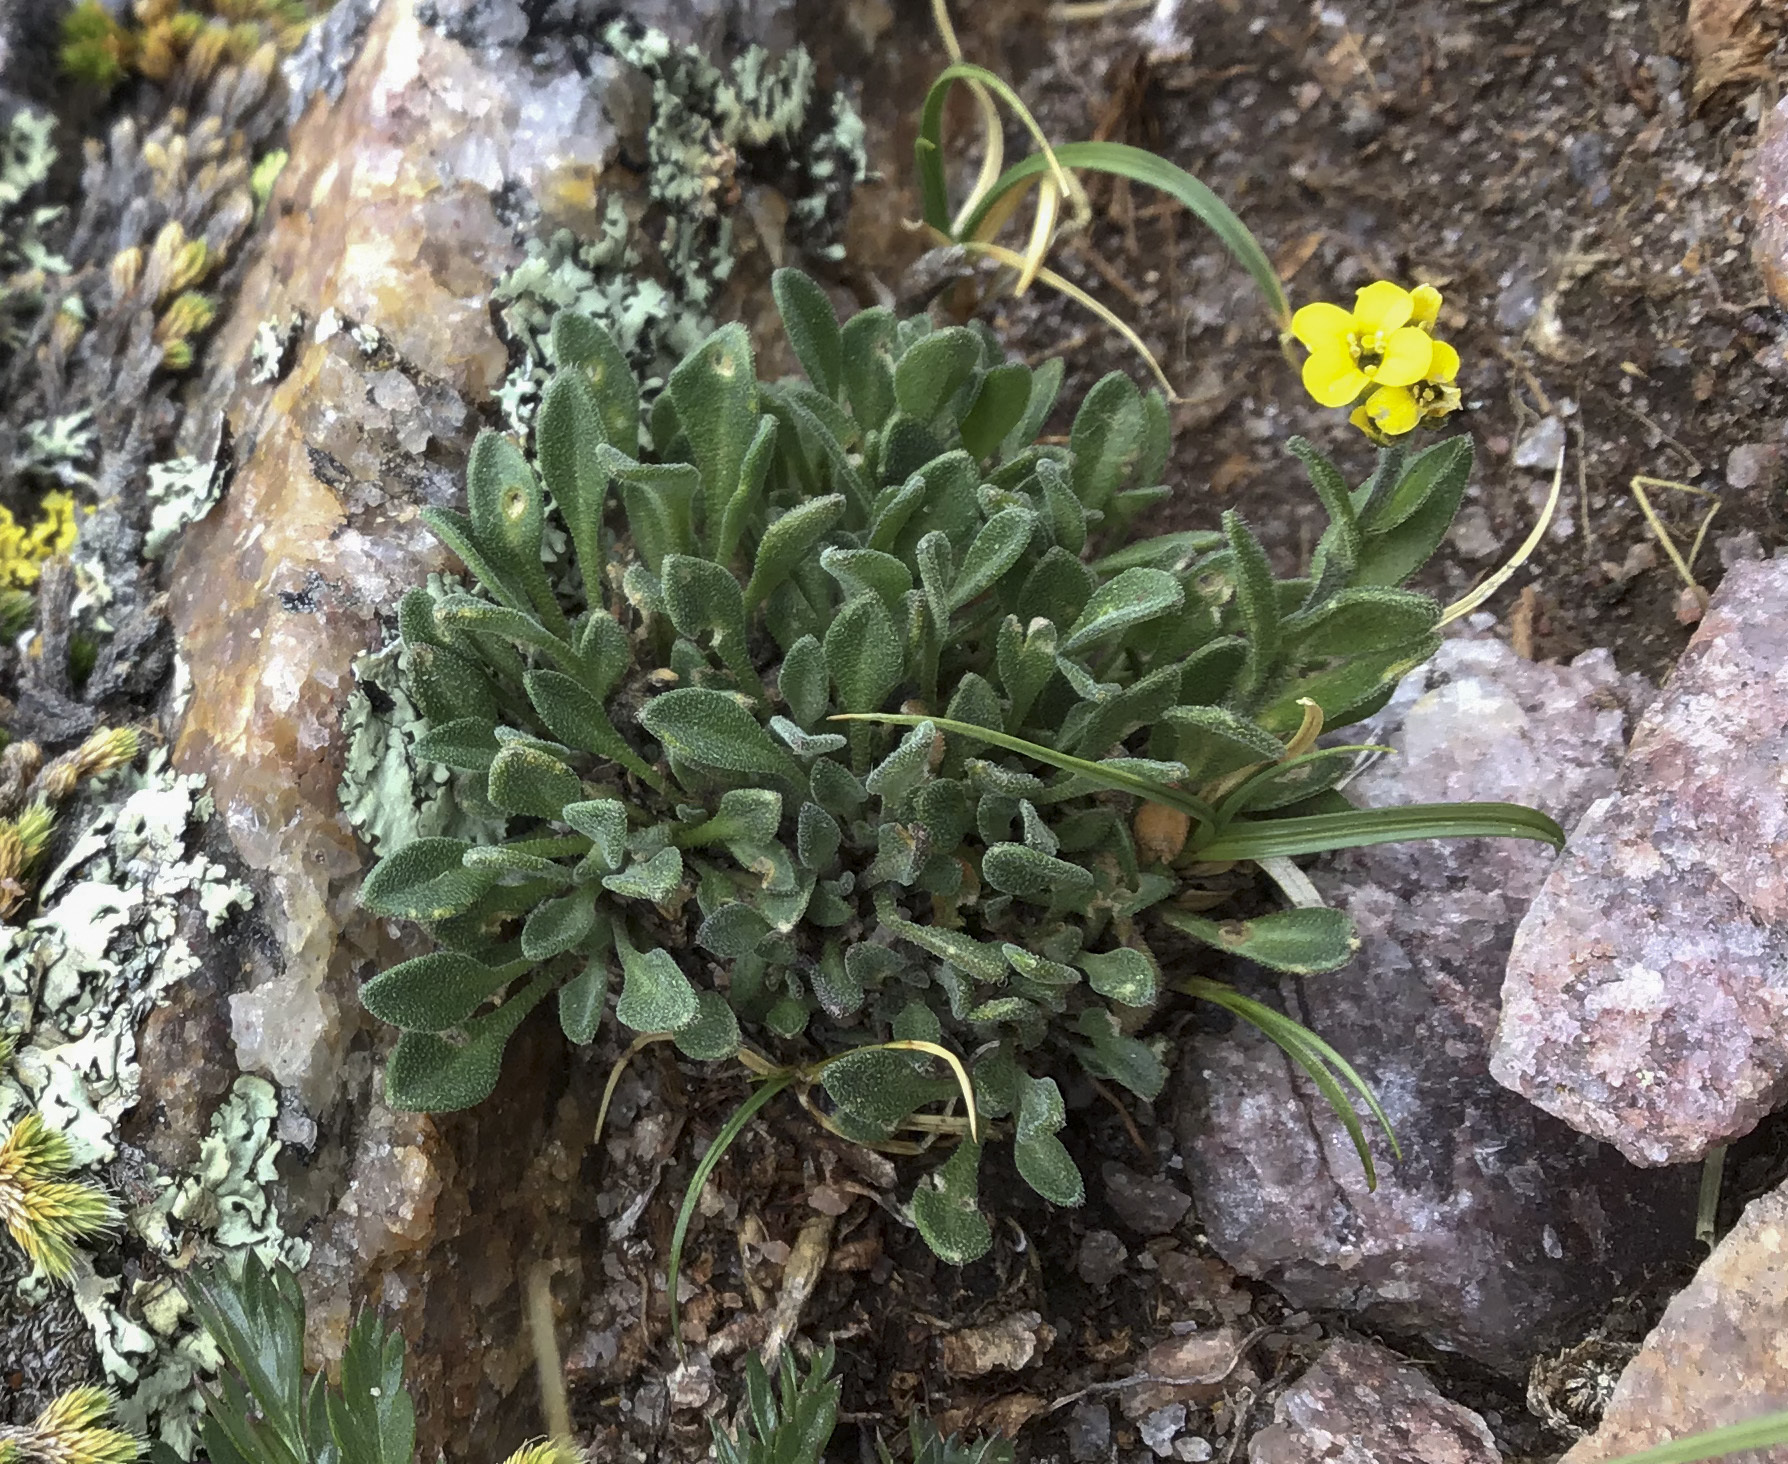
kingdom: Plantae
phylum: Tracheophyta
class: Magnoliopsida
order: Brassicales
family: Brassicaceae
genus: Draba
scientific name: Draba aurea
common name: Golden draba
